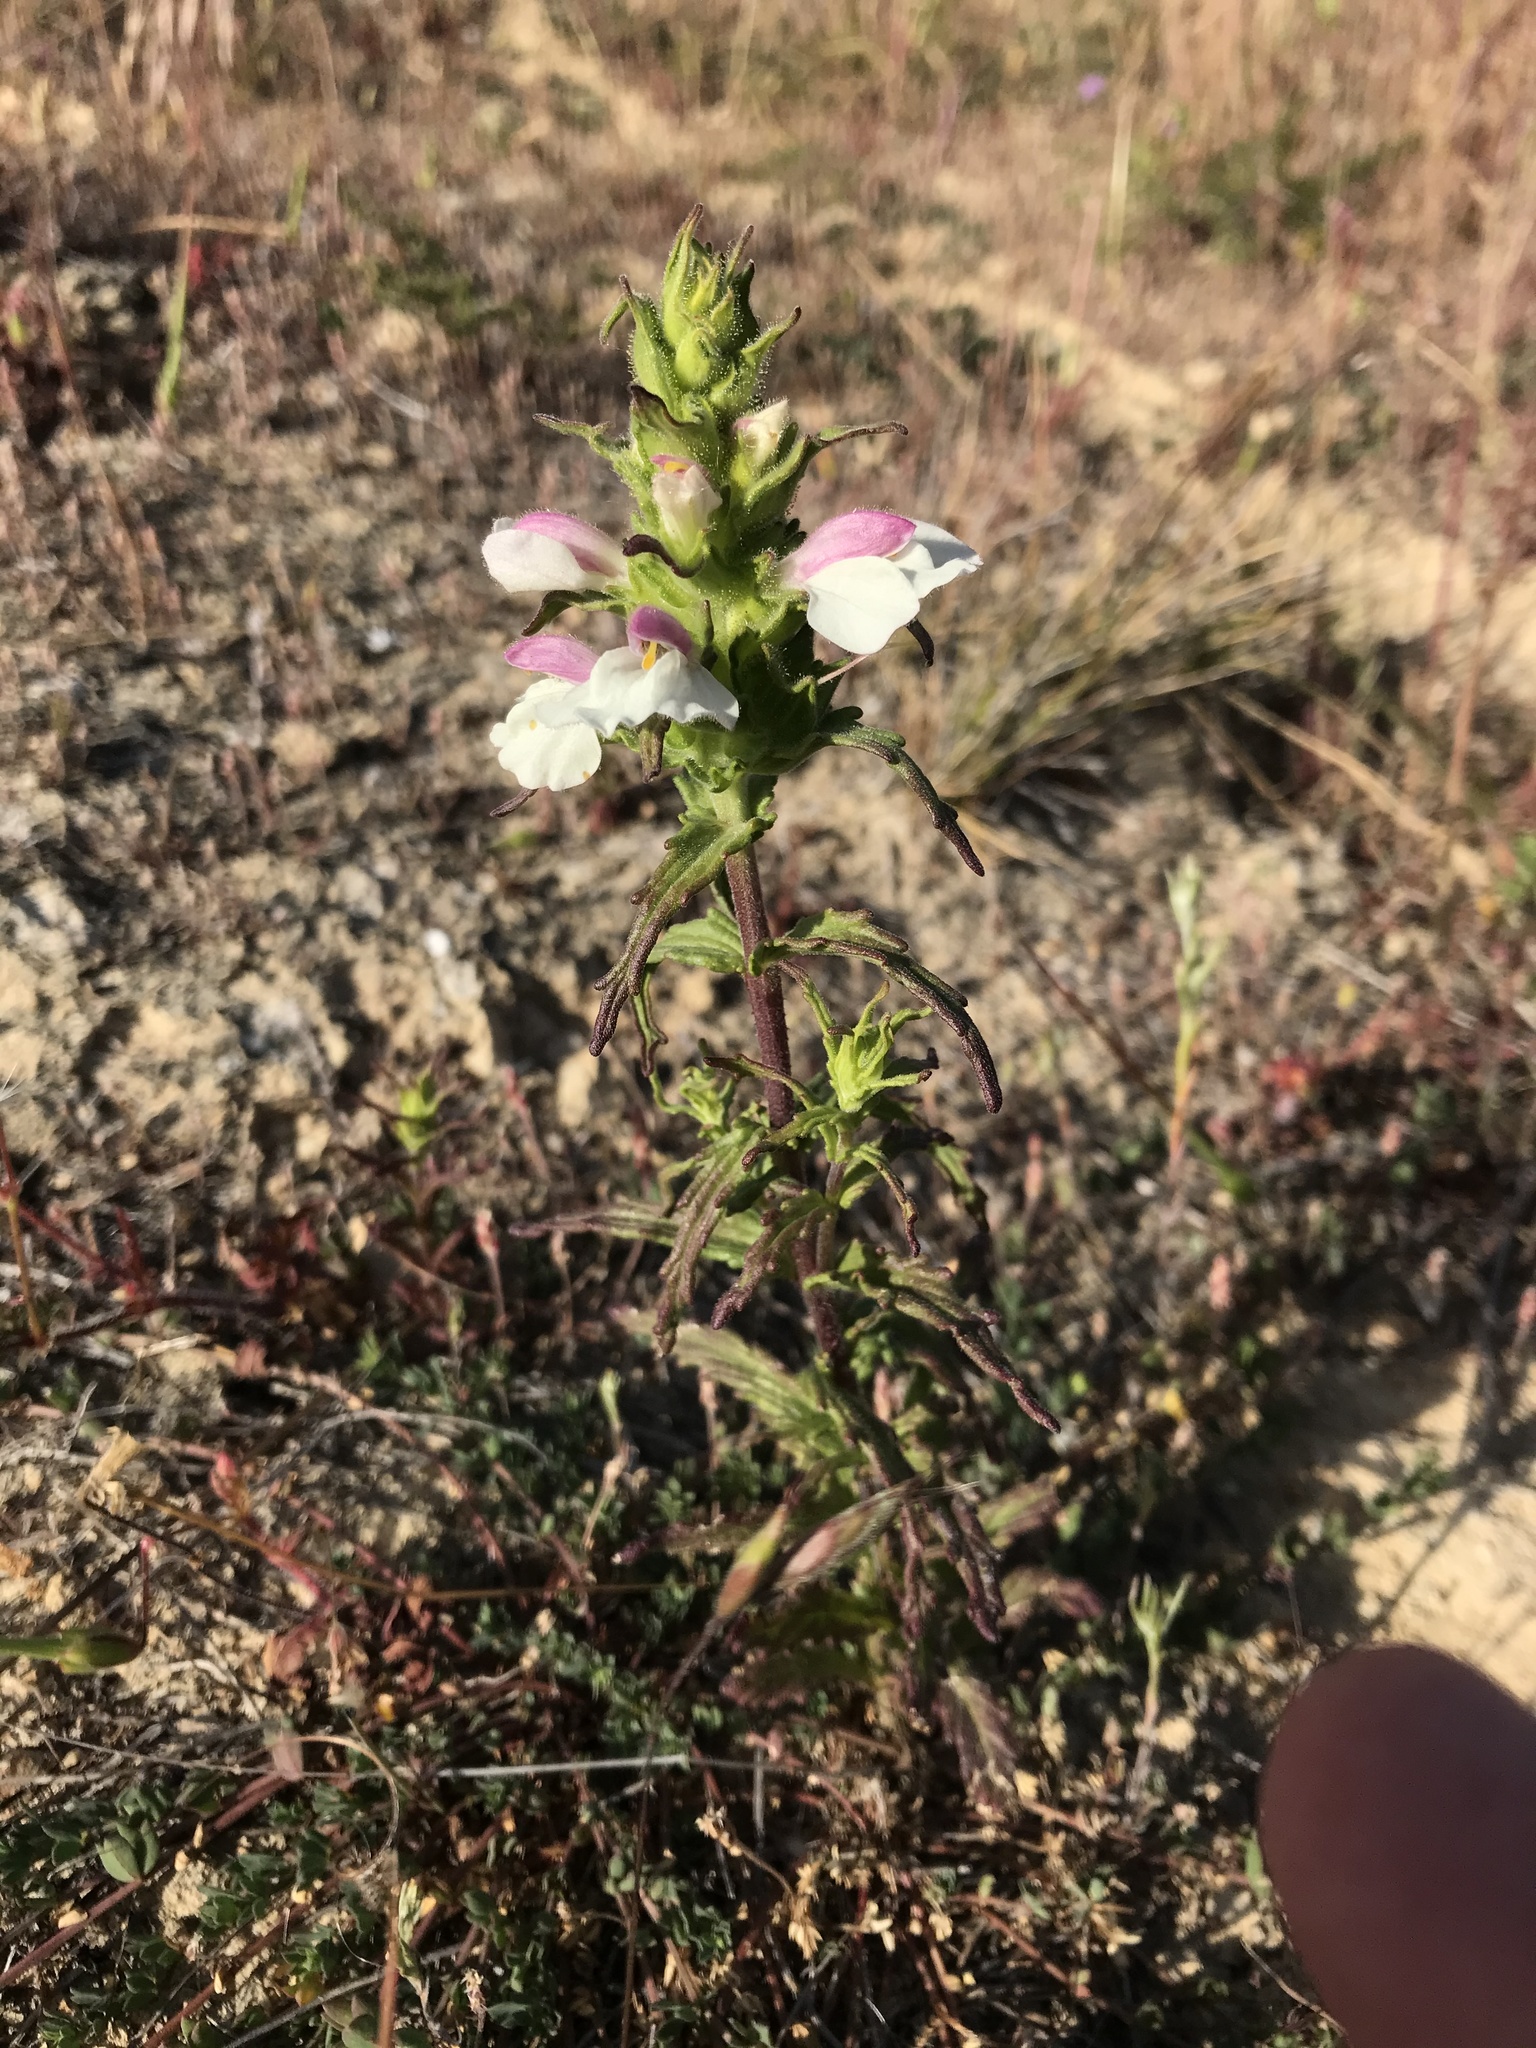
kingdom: Plantae
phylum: Tracheophyta
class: Magnoliopsida
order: Lamiales
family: Orobanchaceae
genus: Bellardia
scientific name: Bellardia trixago
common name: Mediterranean lineseed
